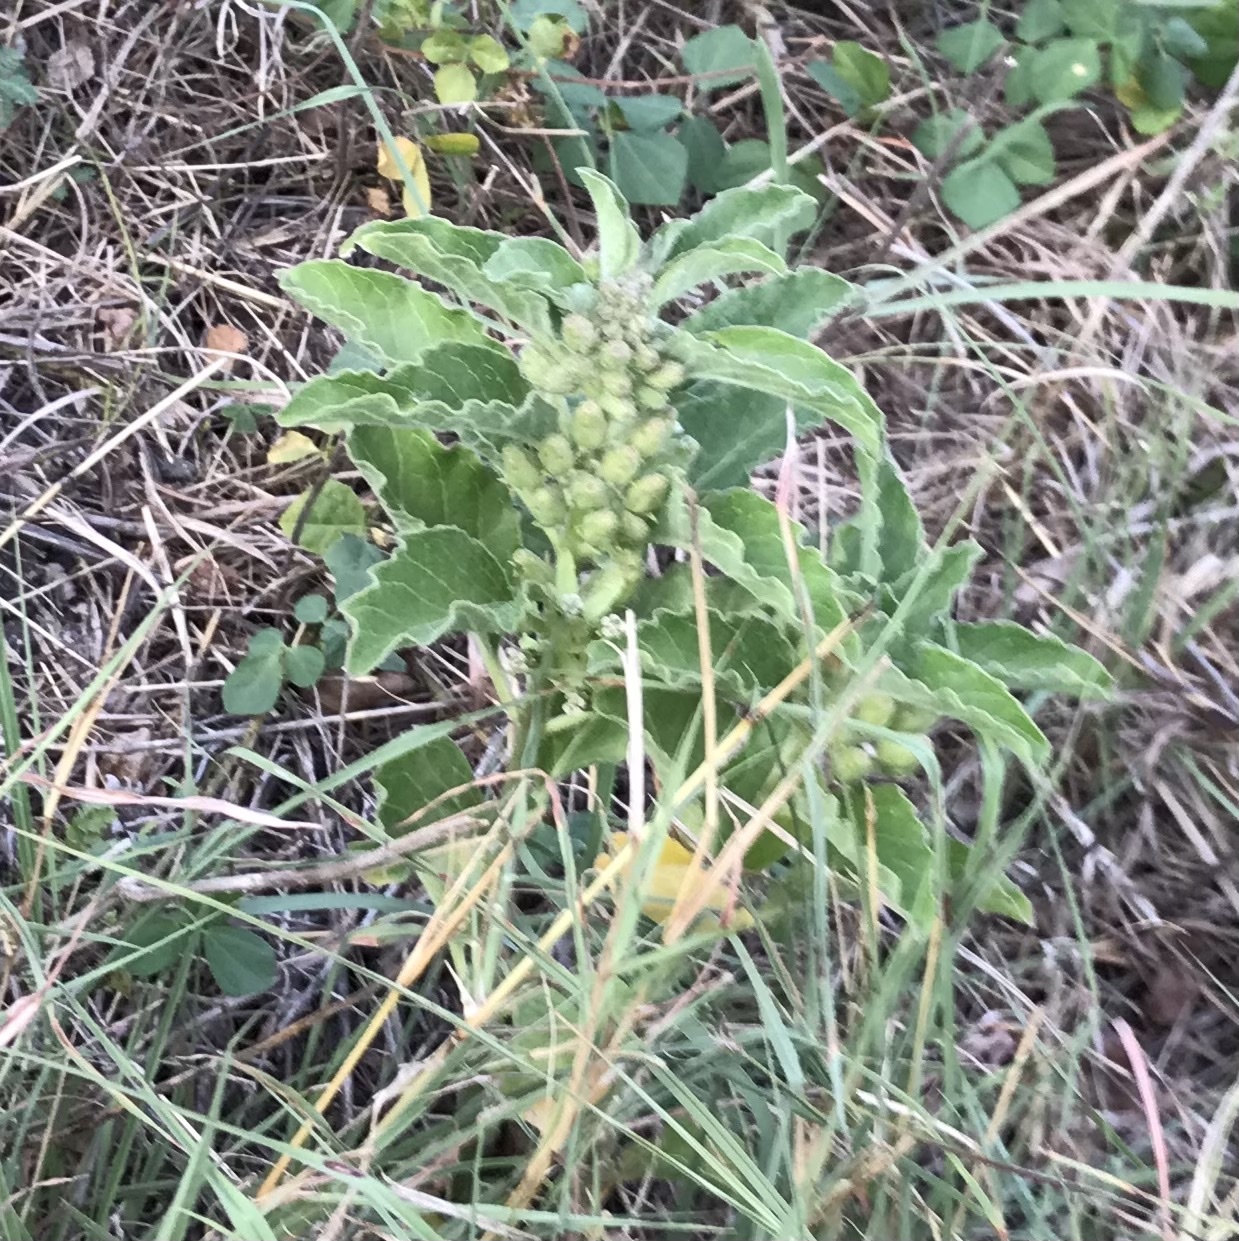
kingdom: Plantae
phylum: Tracheophyta
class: Magnoliopsida
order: Gentianales
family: Apocynaceae
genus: Asclepias
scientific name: Asclepias oenotheroides
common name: Zizotes milkweed
